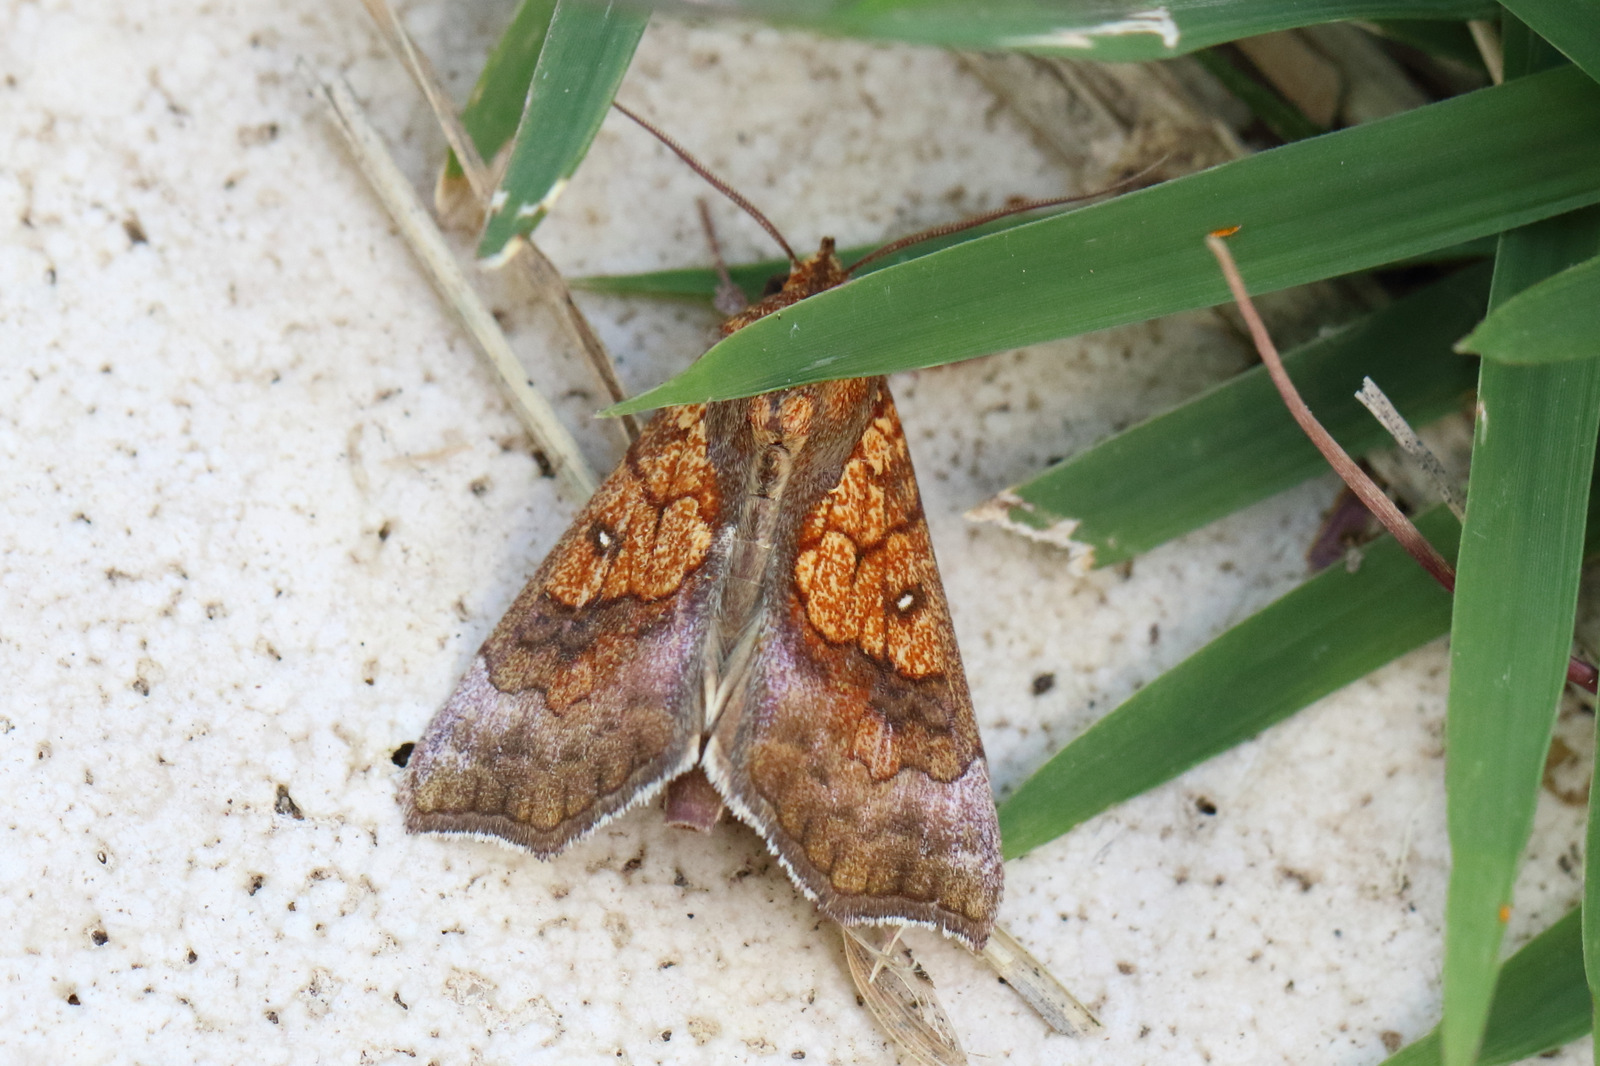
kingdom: Animalia
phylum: Arthropoda
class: Insecta
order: Lepidoptera
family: Erebidae
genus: Anomis
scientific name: Anomis flava
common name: Moth
